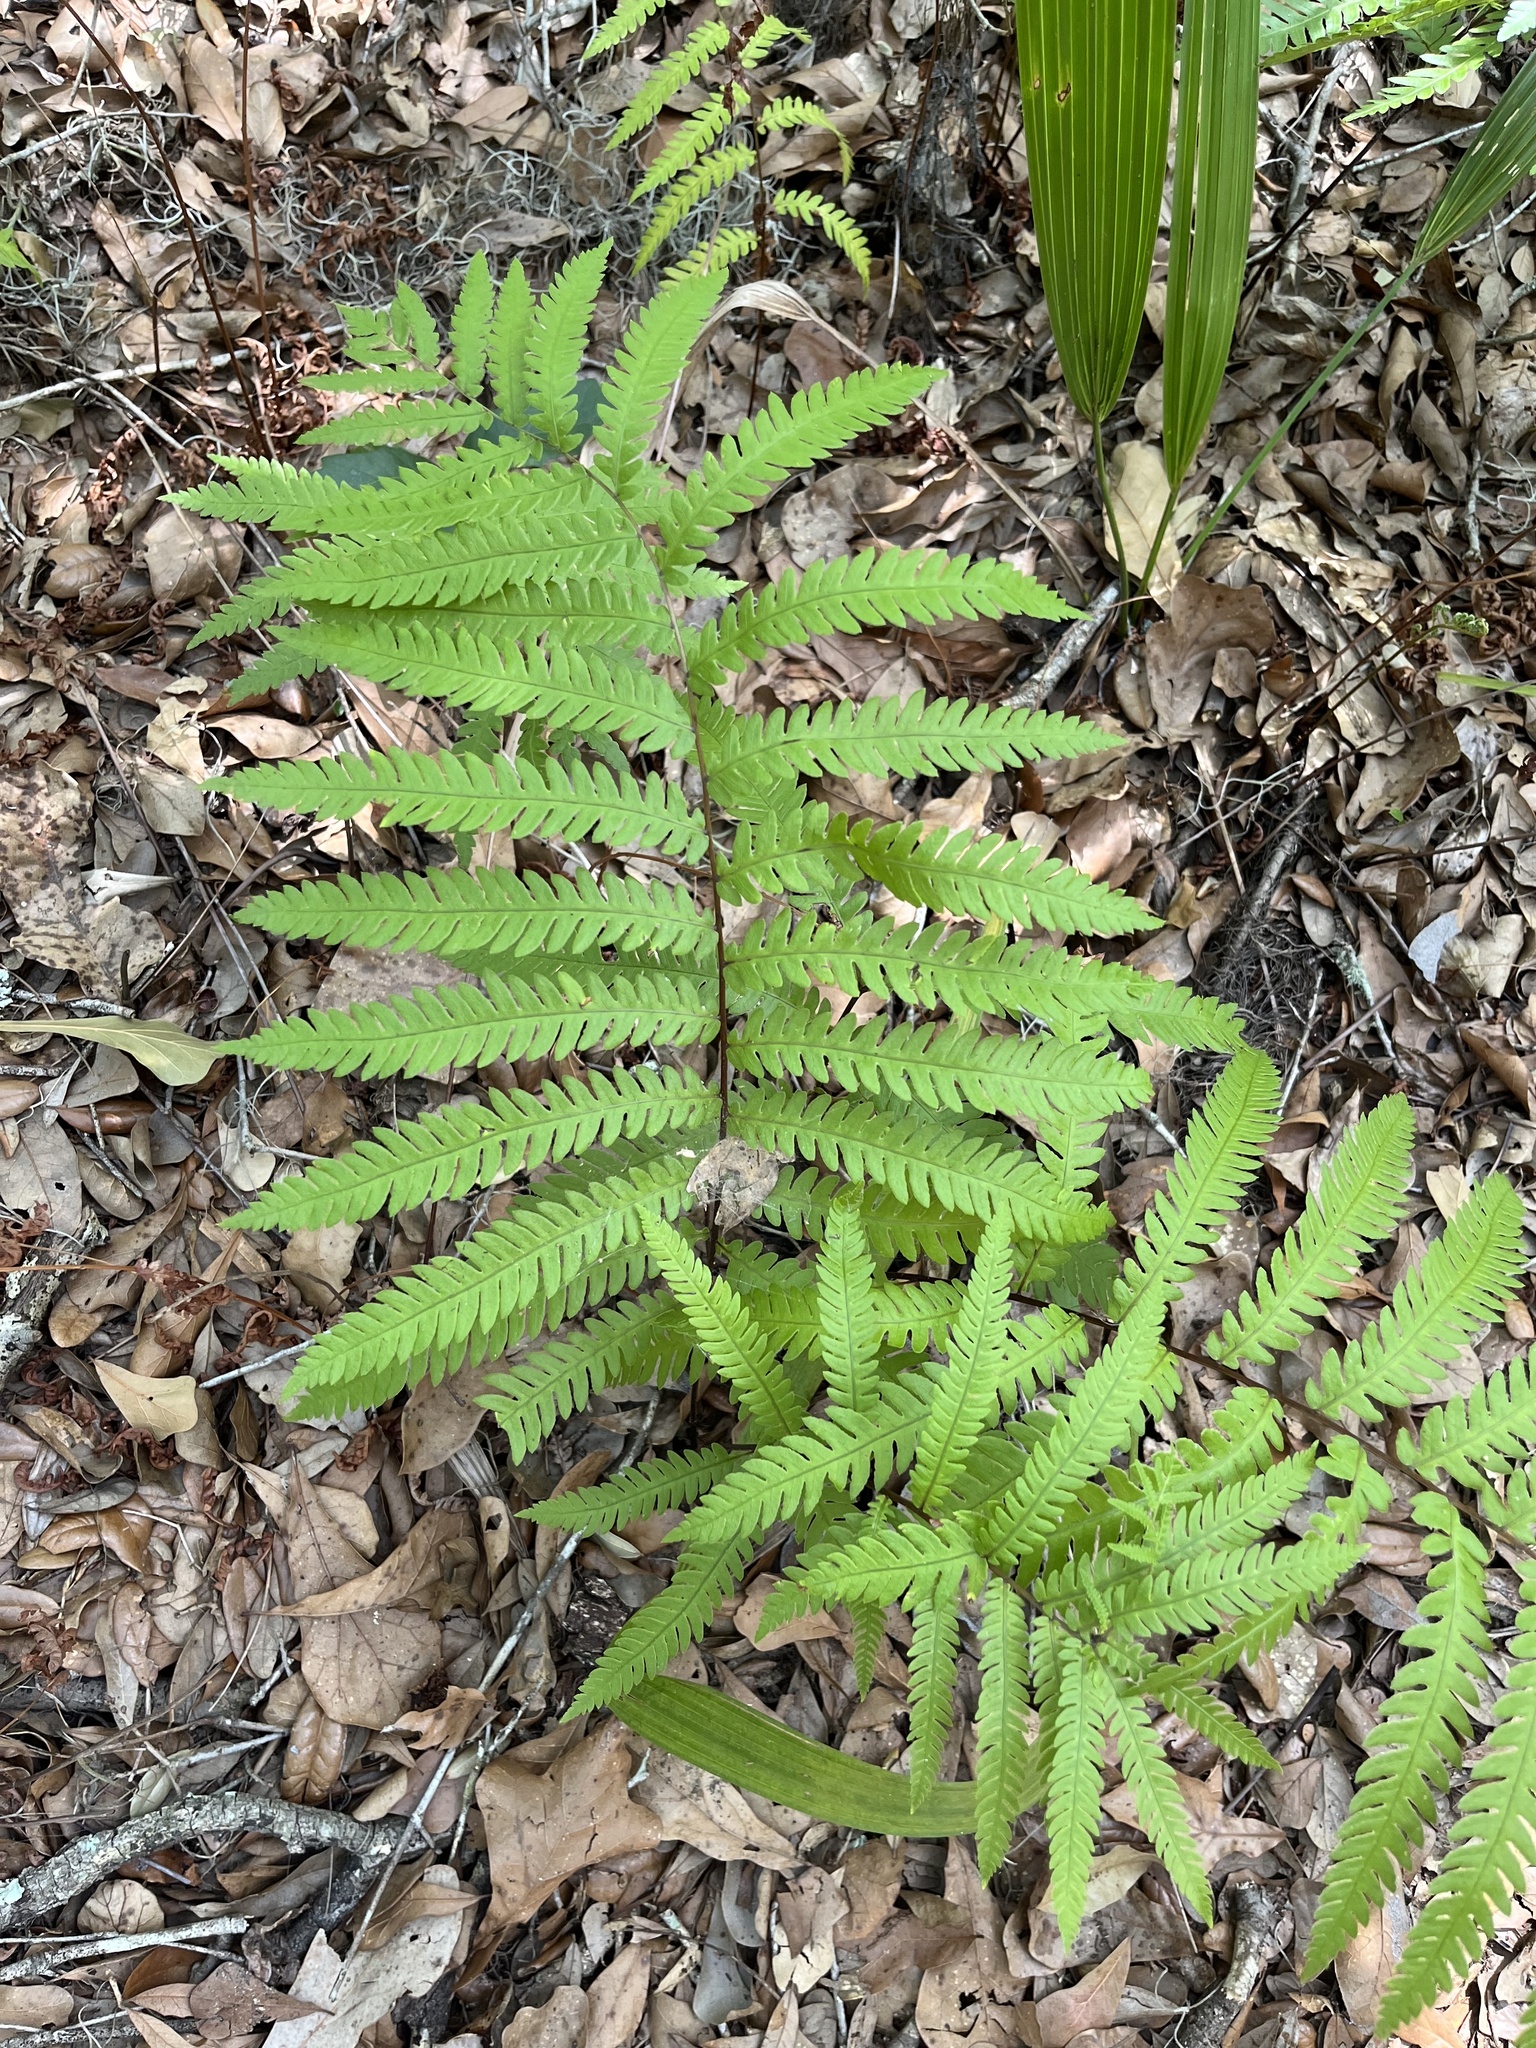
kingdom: Plantae
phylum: Tracheophyta
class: Polypodiopsida
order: Polypodiales
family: Blechnaceae
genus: Anchistea
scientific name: Anchistea virginica
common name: Virginia chain fern
